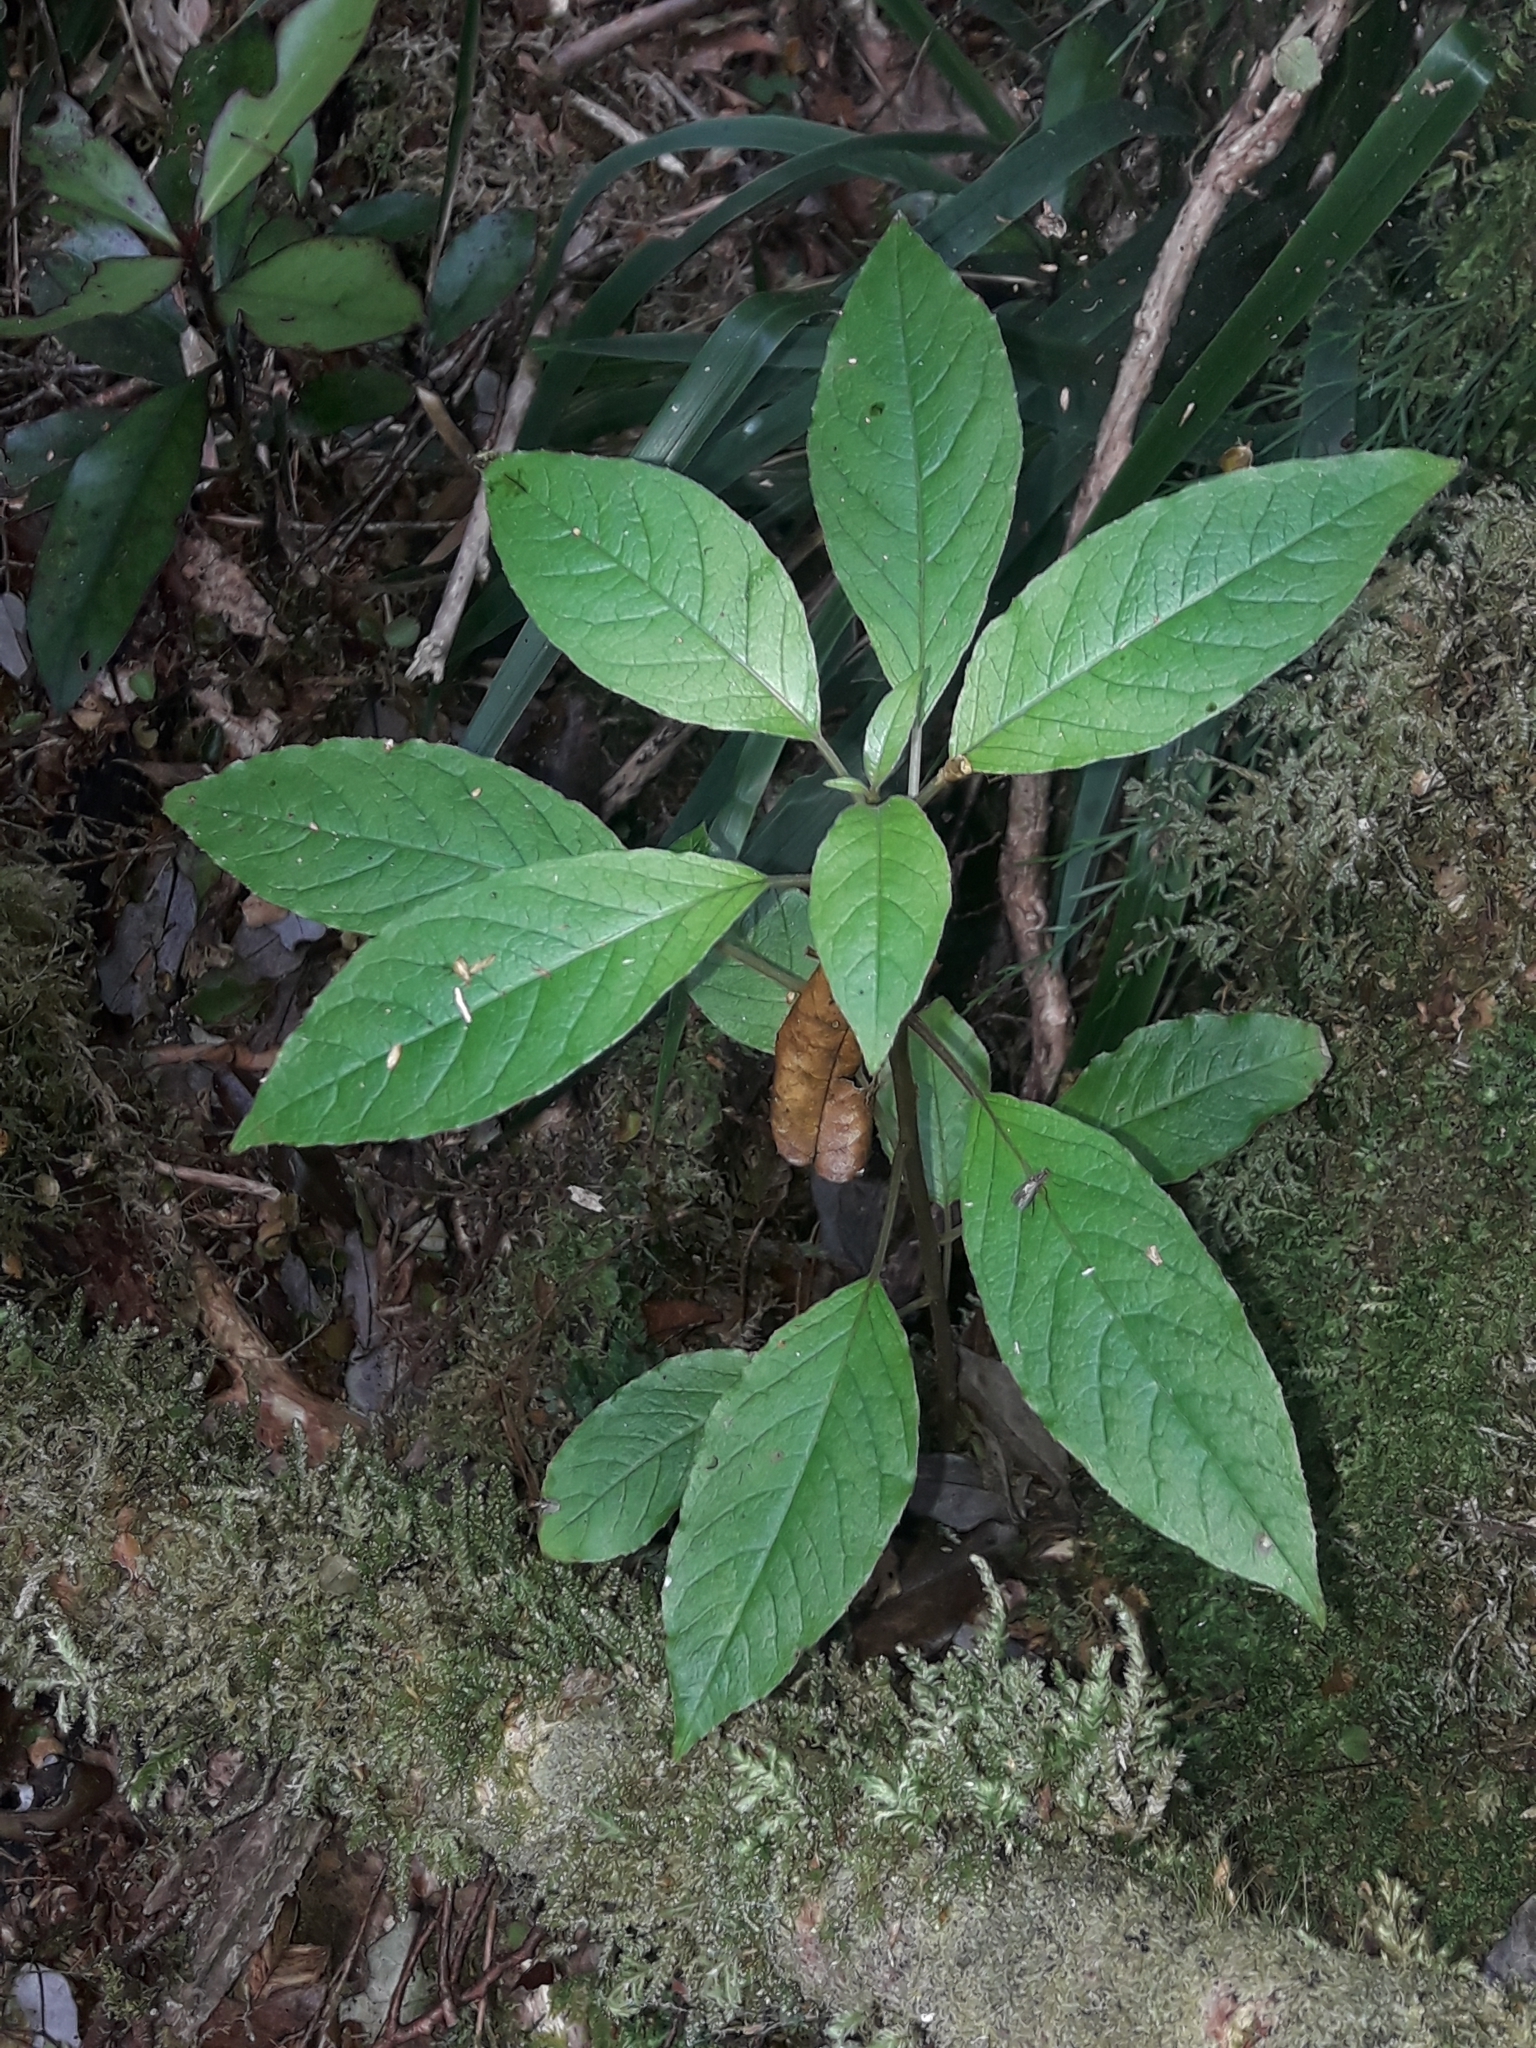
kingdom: Plantae
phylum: Tracheophyta
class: Magnoliopsida
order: Myrtales
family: Onagraceae
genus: Fuchsia
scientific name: Fuchsia excorticata
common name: Tree fuchsia
